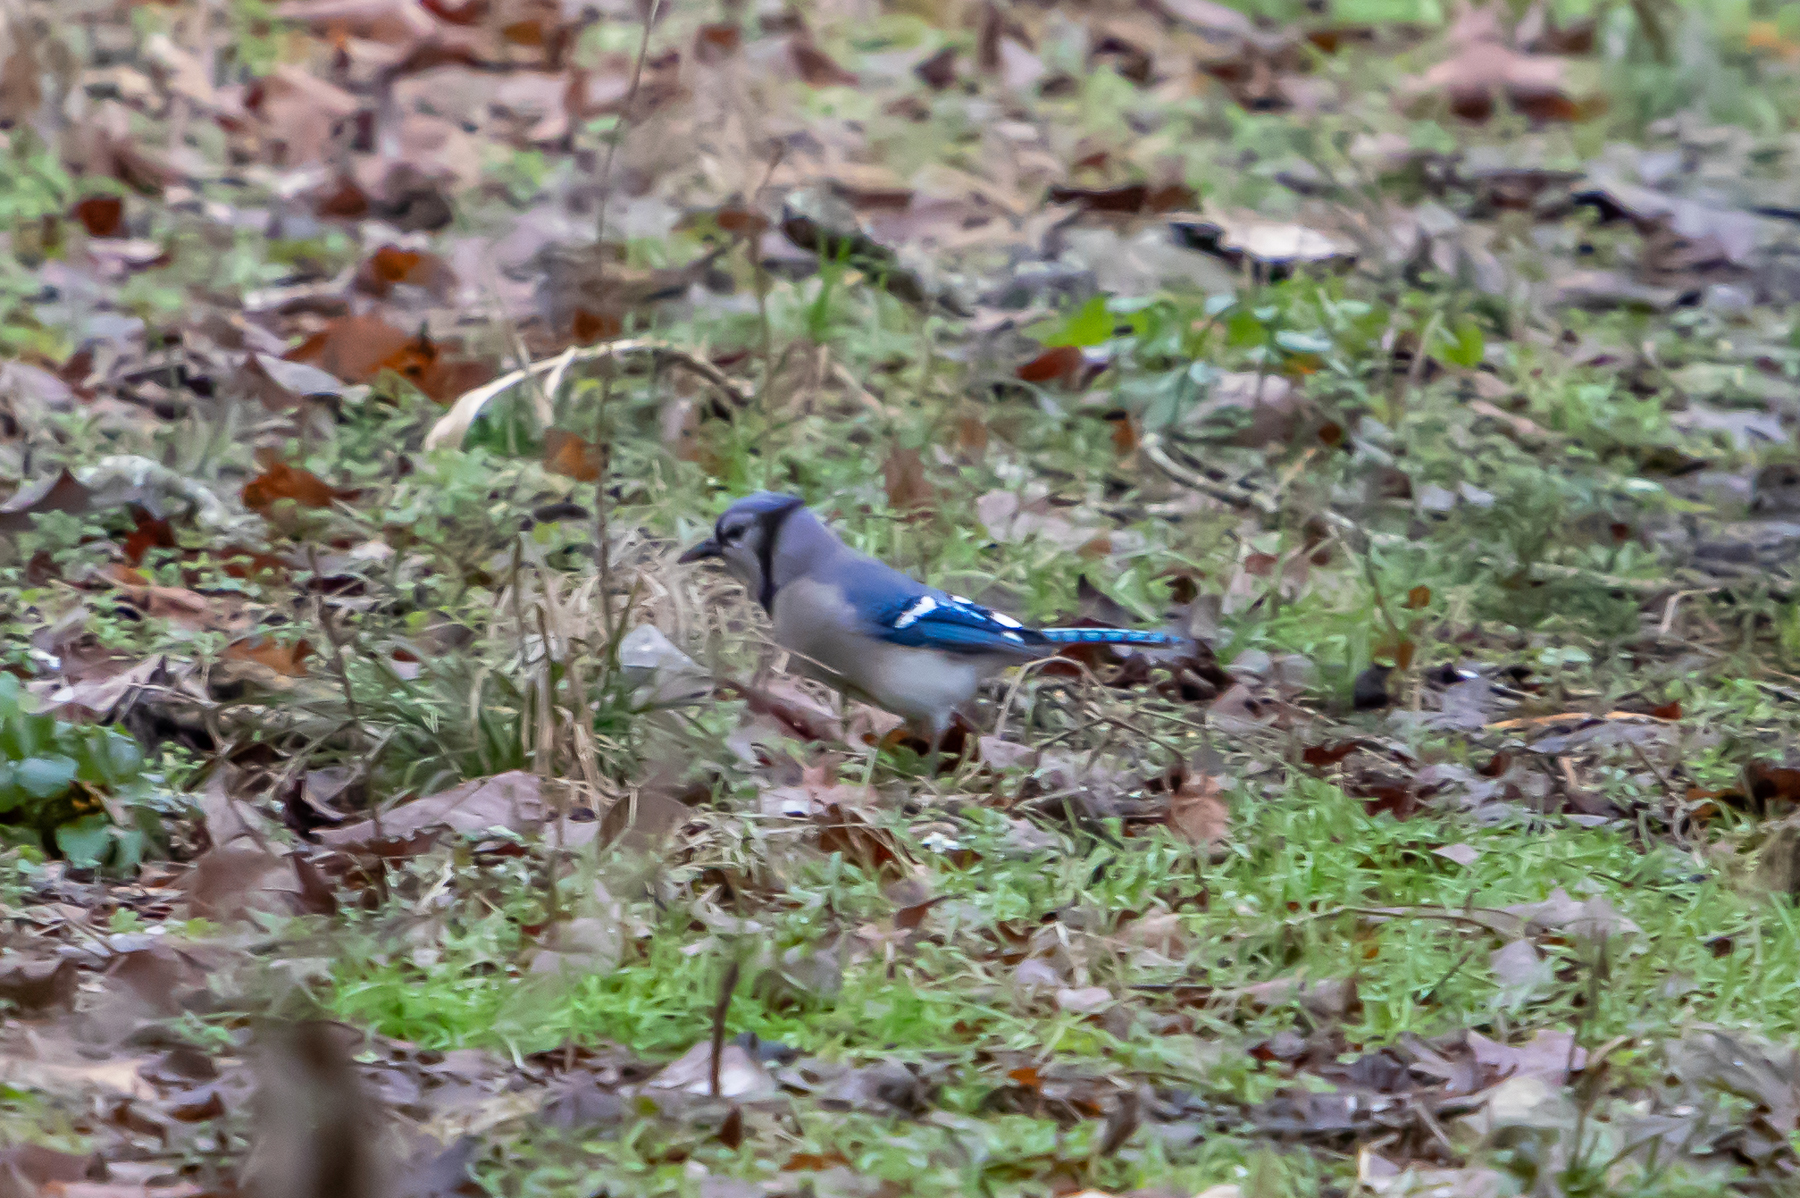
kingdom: Animalia
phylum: Chordata
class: Aves
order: Passeriformes
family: Corvidae
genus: Cyanocitta
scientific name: Cyanocitta cristata
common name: Blue jay
